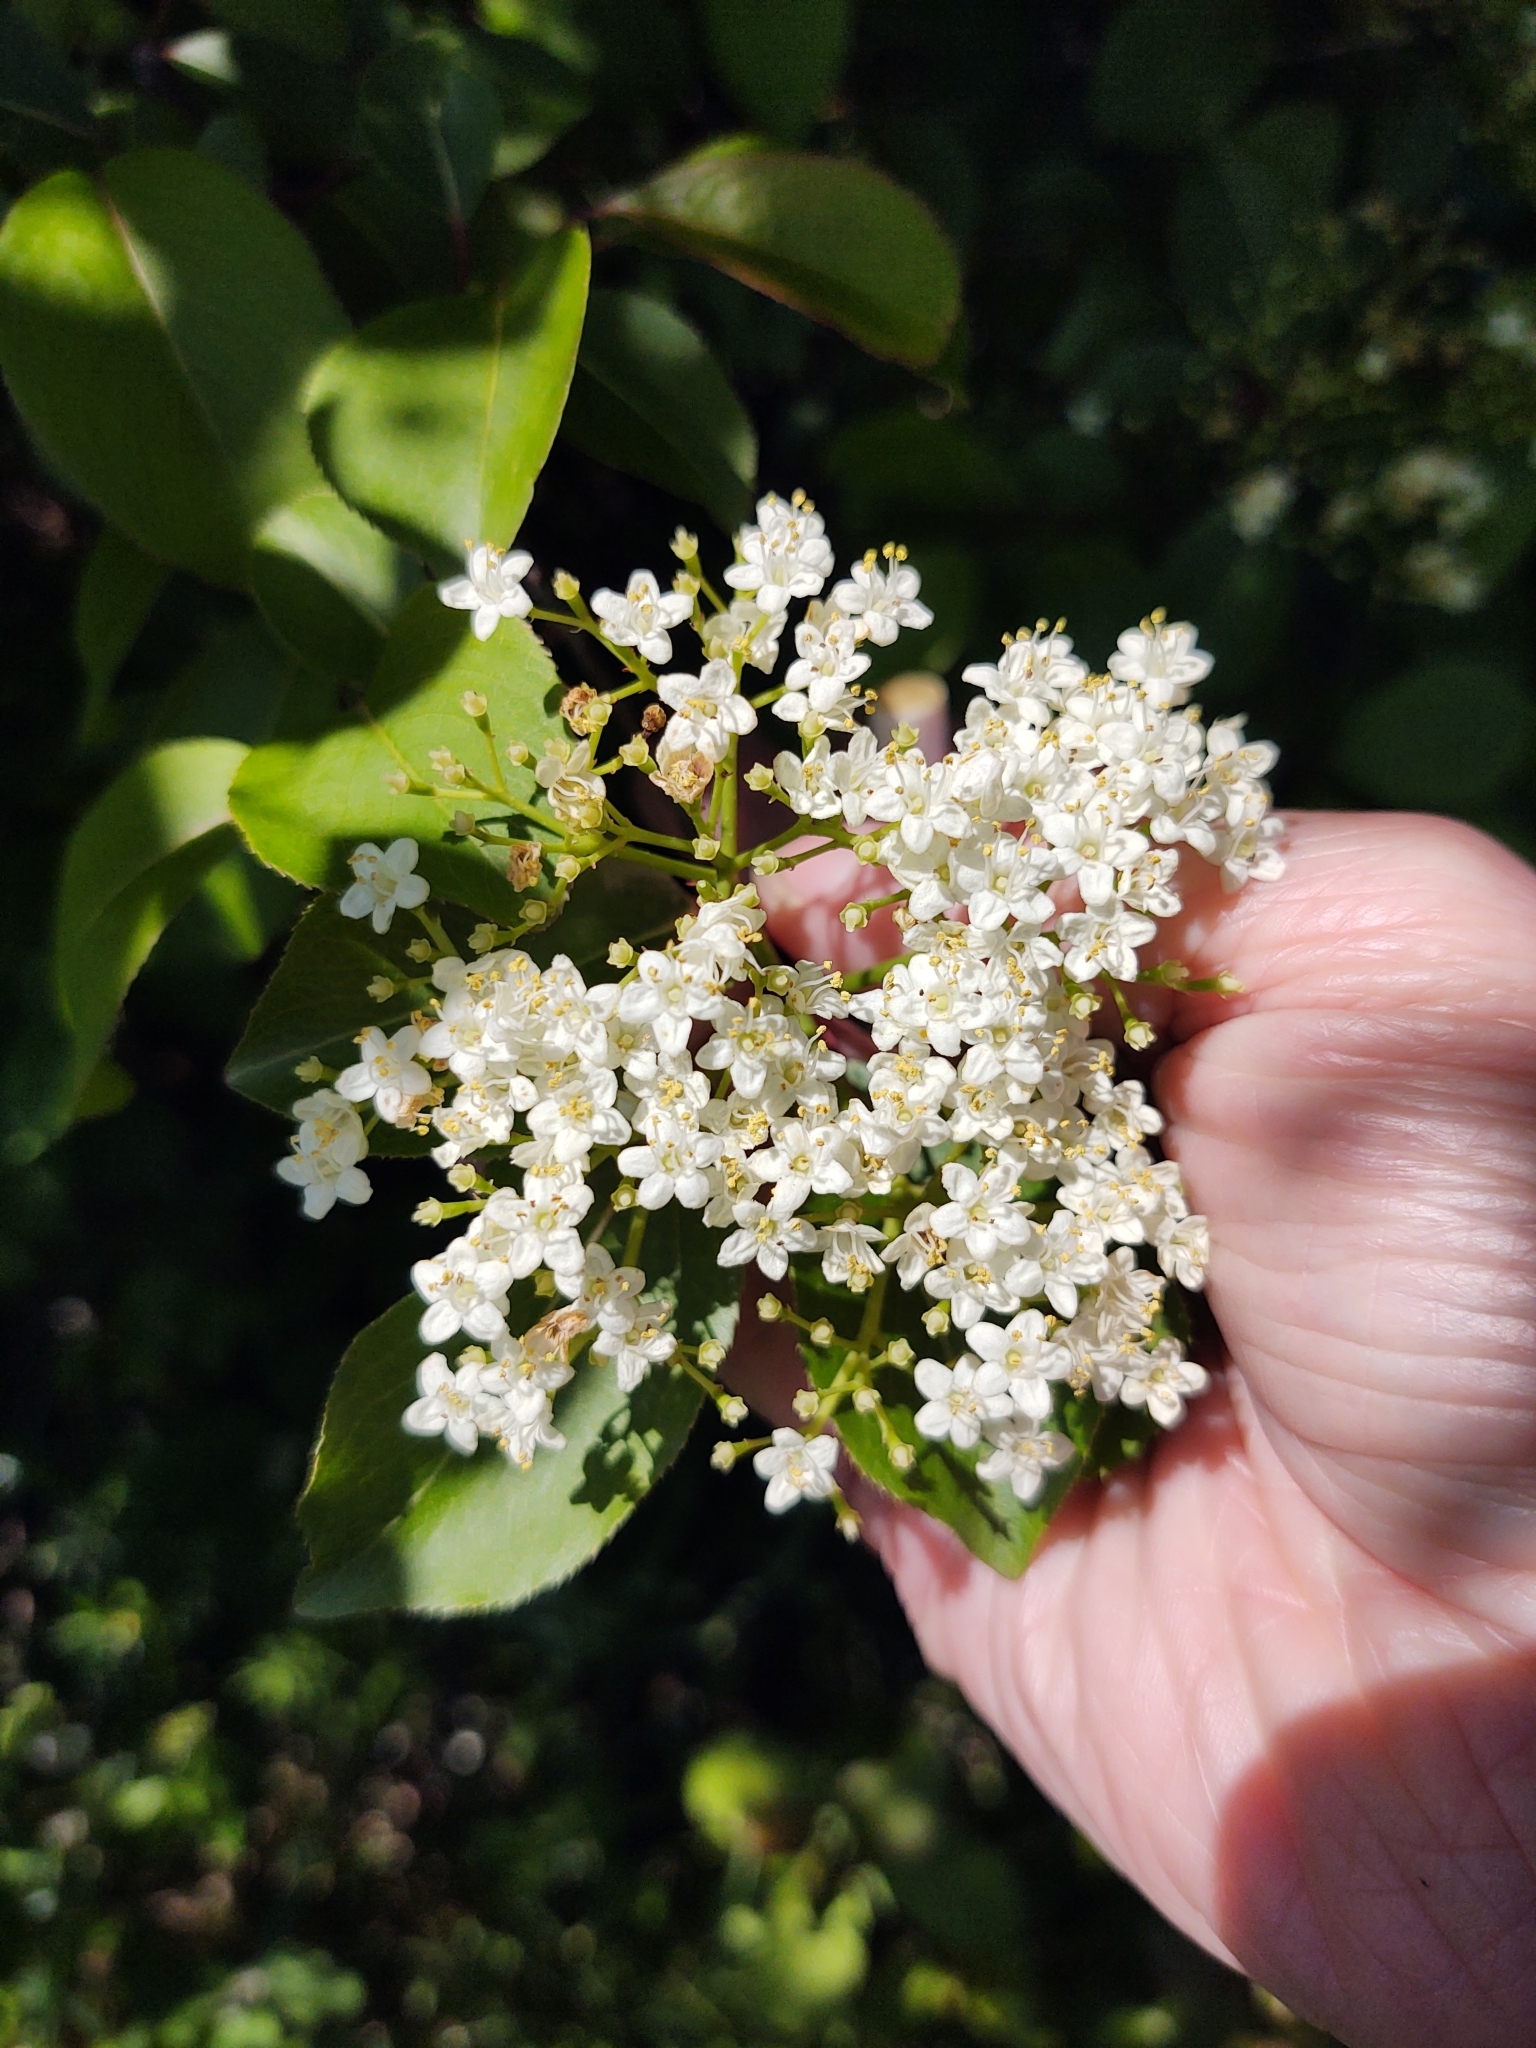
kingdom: Plantae
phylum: Tracheophyta
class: Magnoliopsida
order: Dipsacales
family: Viburnaceae
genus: Viburnum
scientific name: Viburnum prunifolium
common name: Black haw
